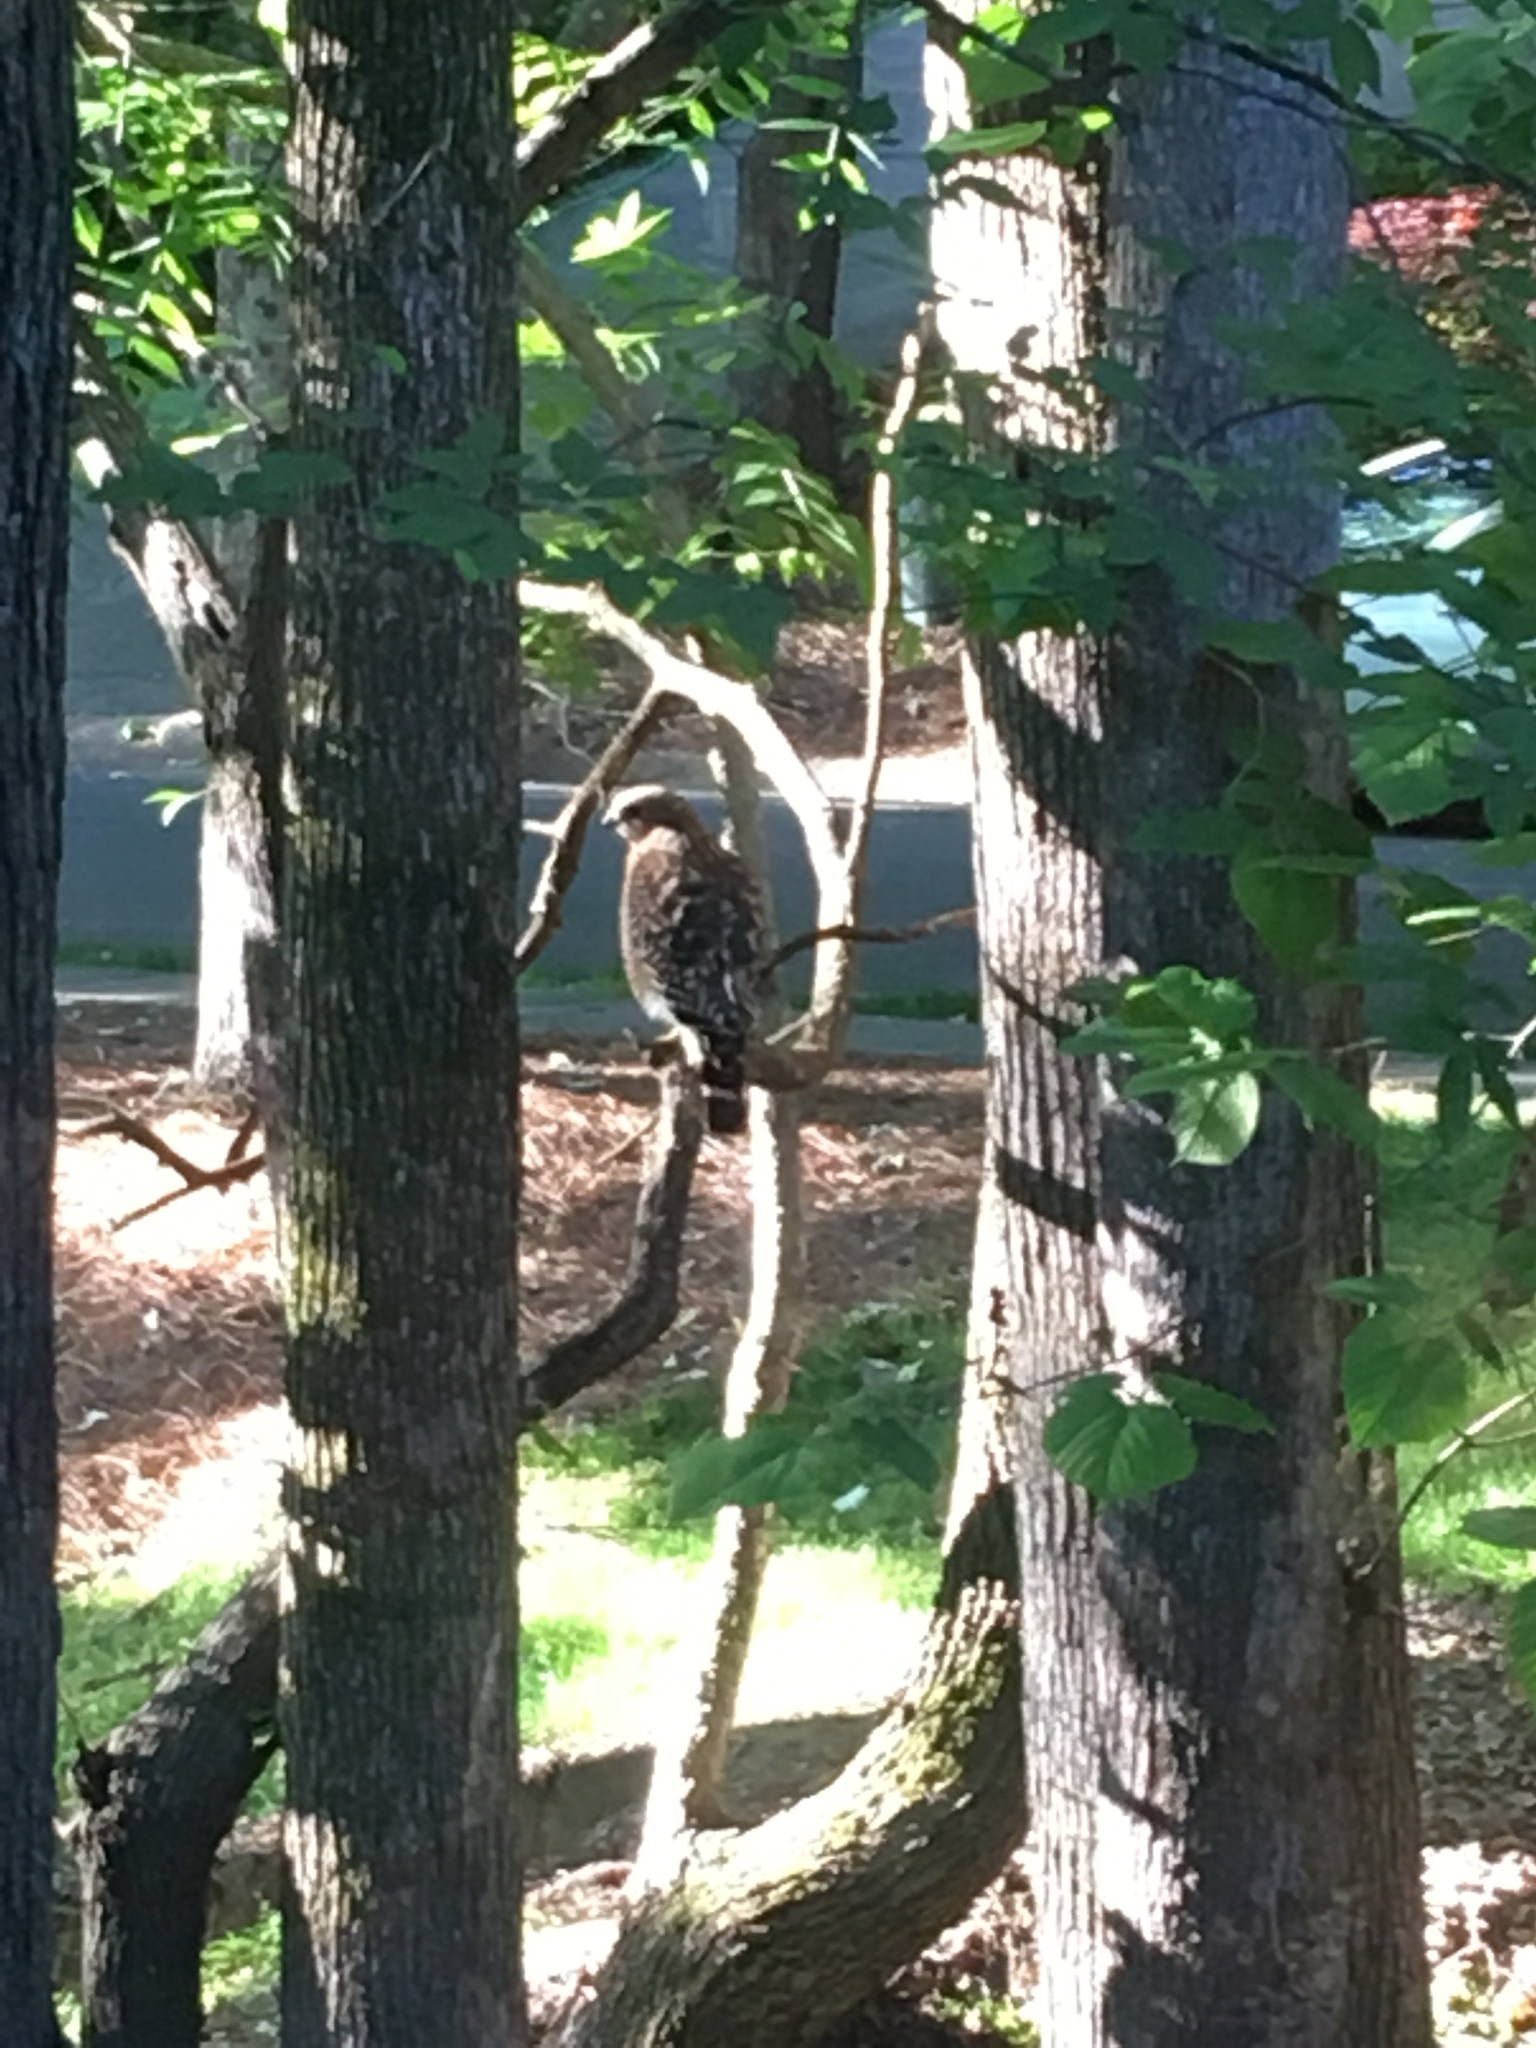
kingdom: Animalia
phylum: Chordata
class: Aves
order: Accipitriformes
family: Accipitridae
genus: Buteo
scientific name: Buteo lineatus
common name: Red-shouldered hawk
